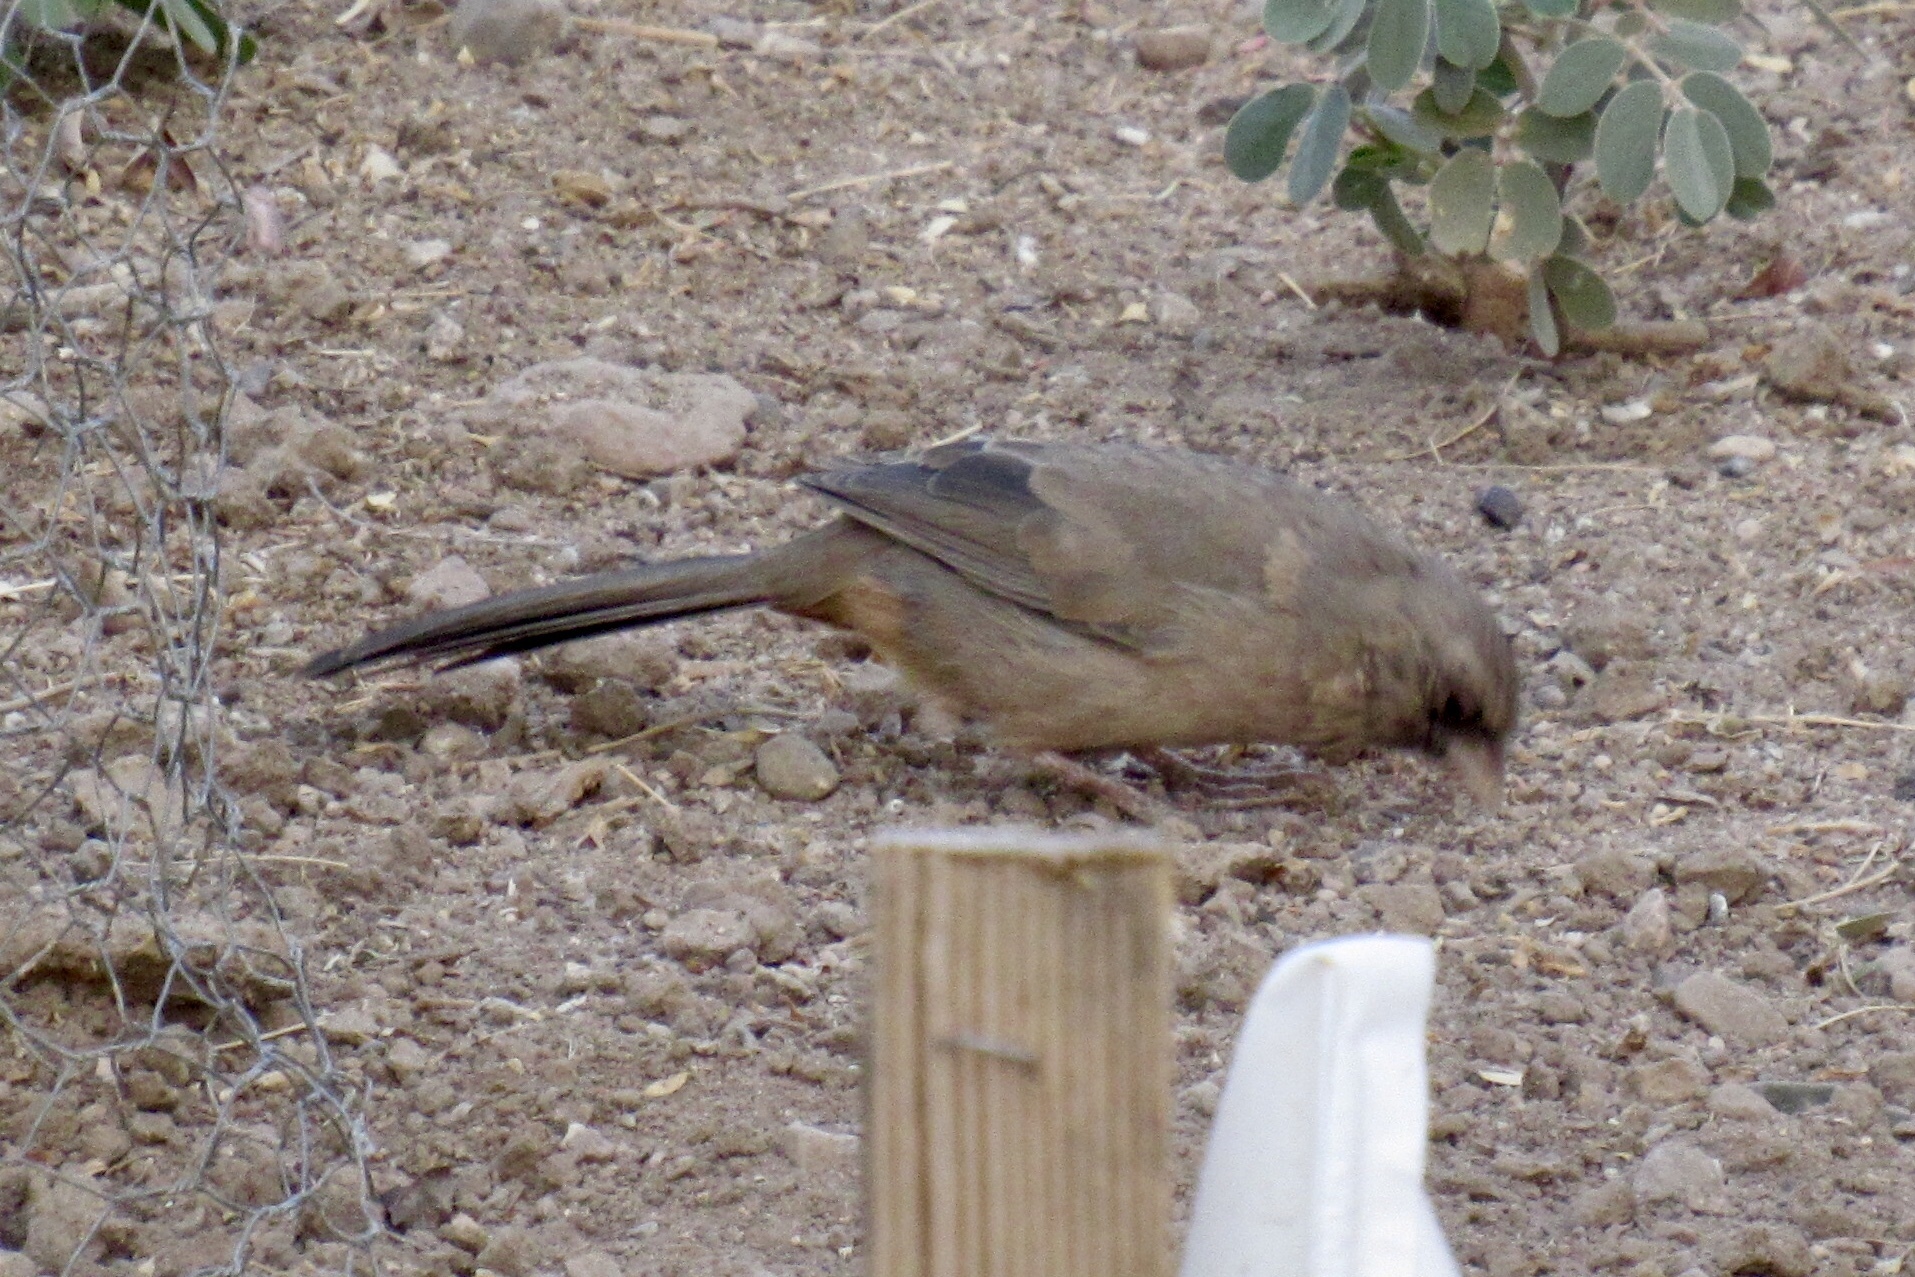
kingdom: Animalia
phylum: Chordata
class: Aves
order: Passeriformes
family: Passerellidae
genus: Melozone
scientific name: Melozone aberti
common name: Abert's towhee
